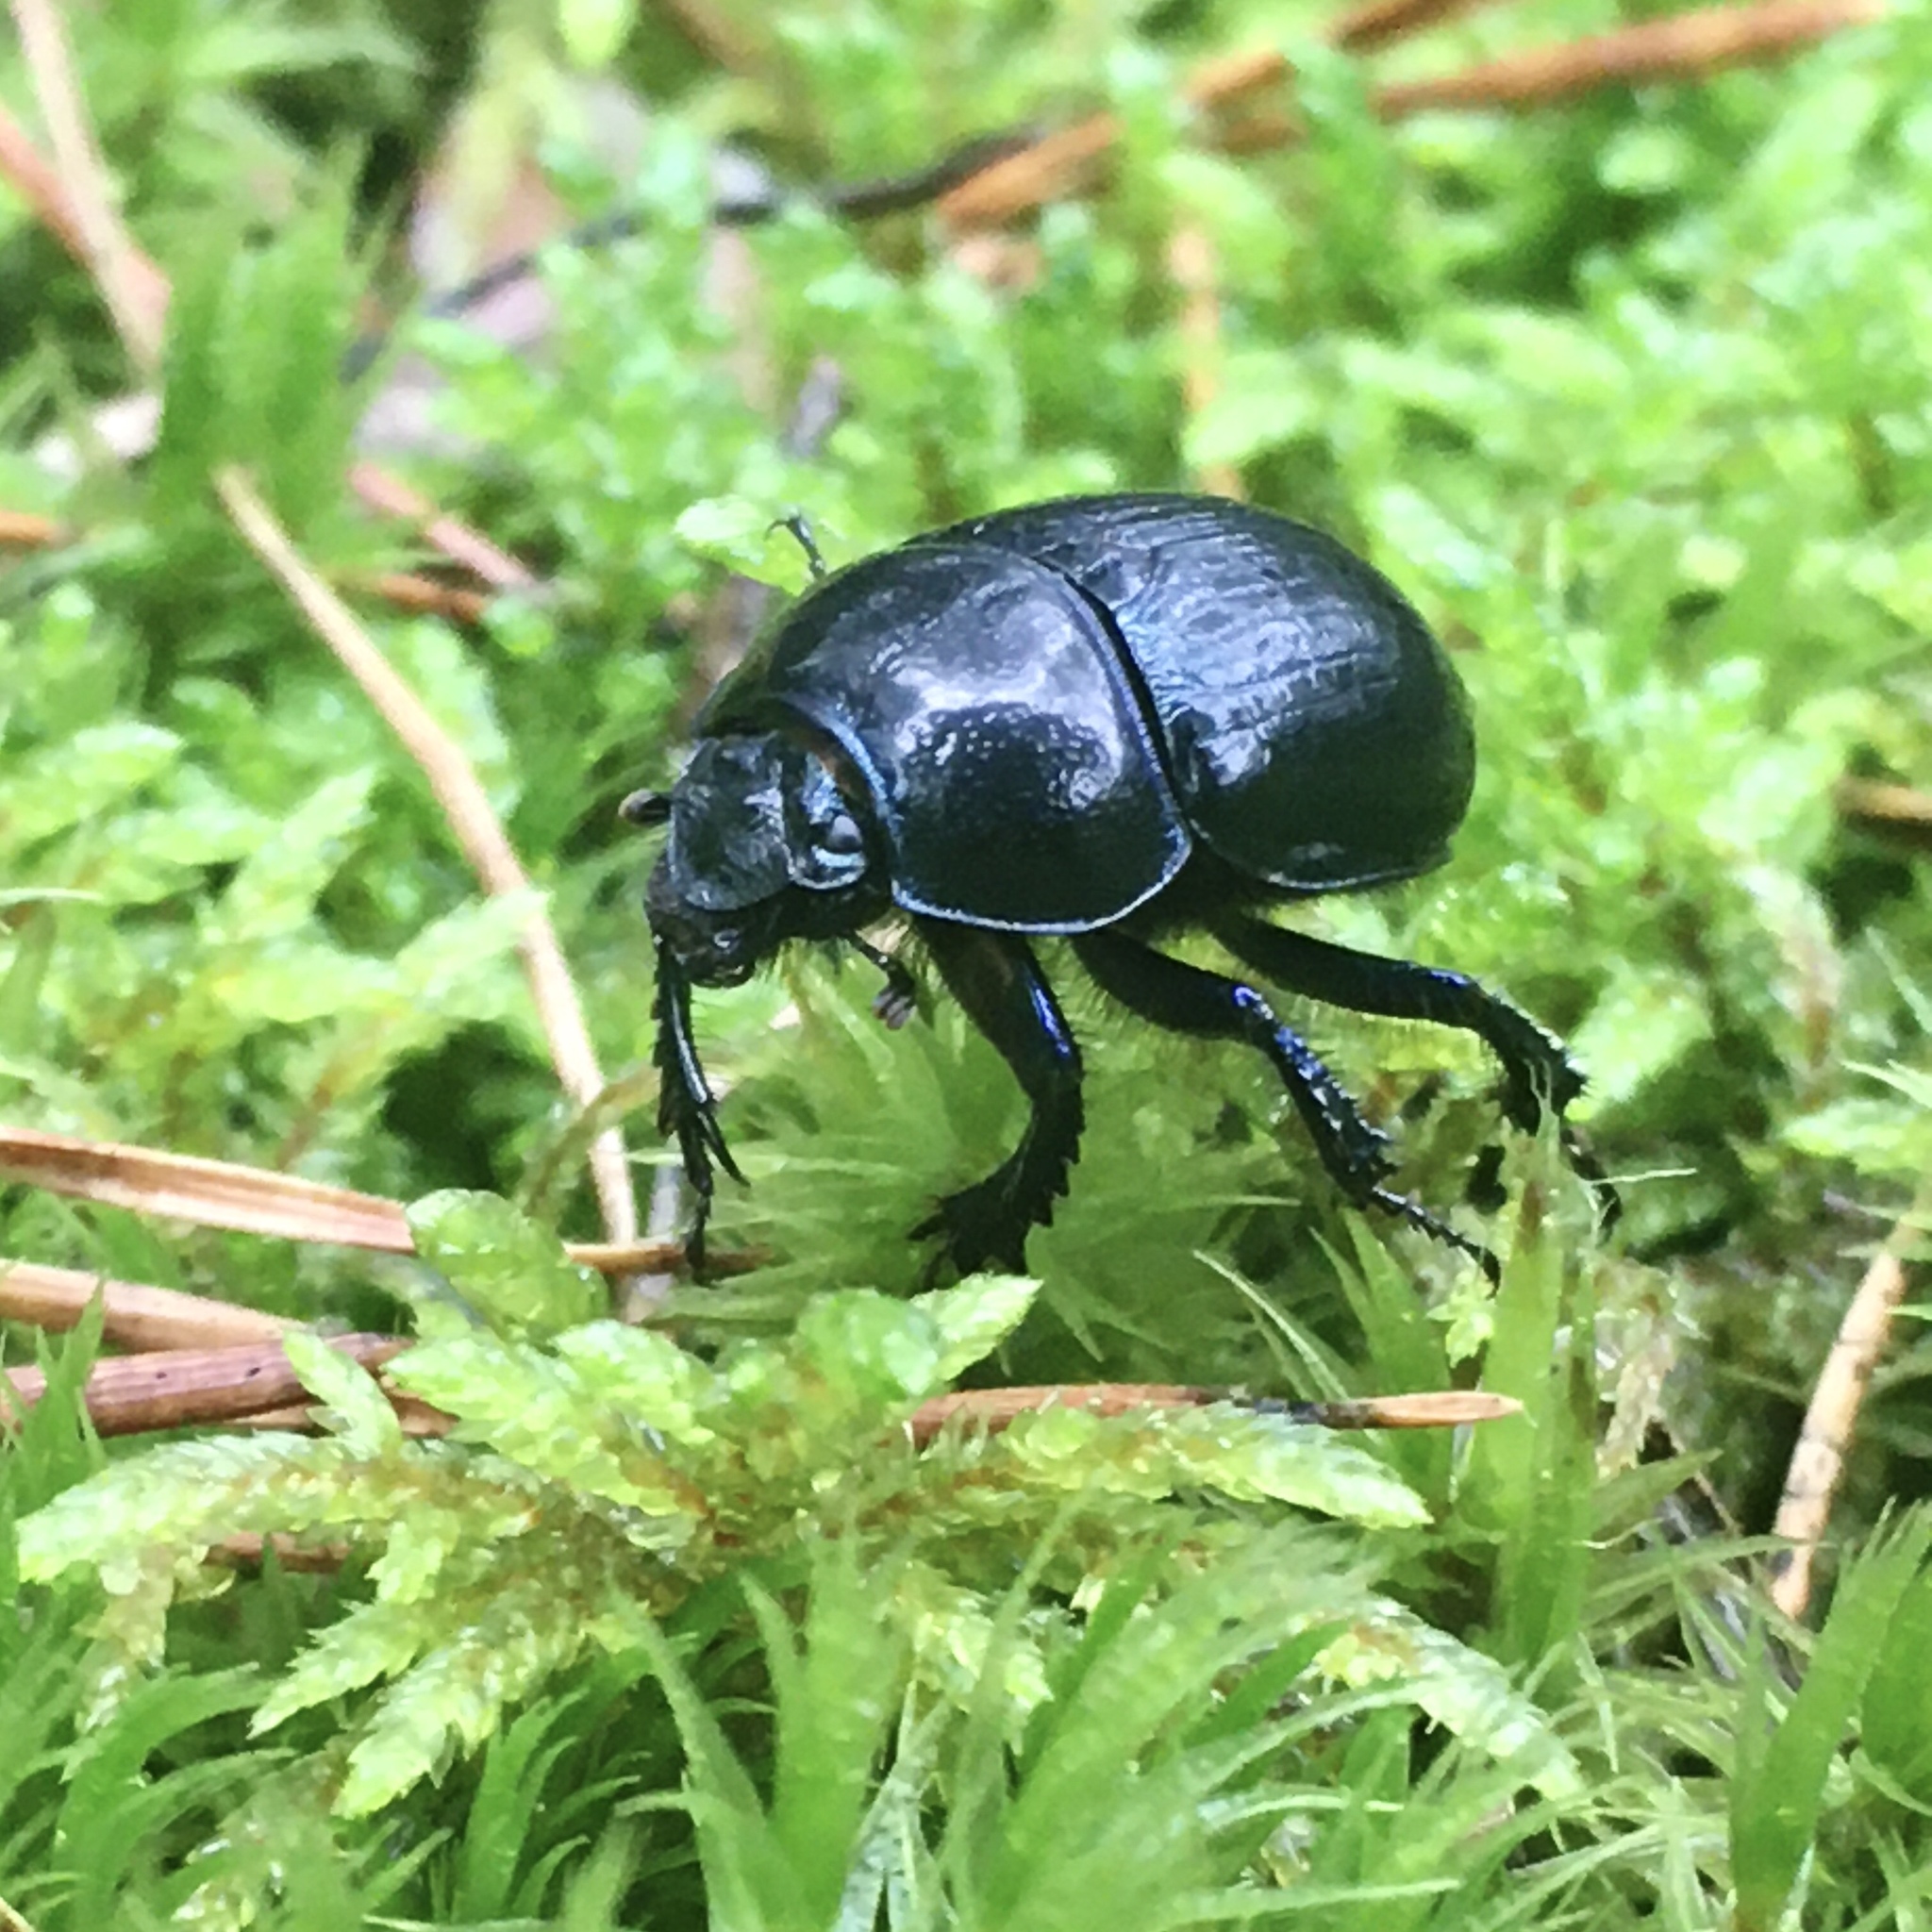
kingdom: Animalia
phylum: Arthropoda
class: Insecta
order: Coleoptera
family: Geotrupidae
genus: Anoplotrupes
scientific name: Anoplotrupes stercorosus
